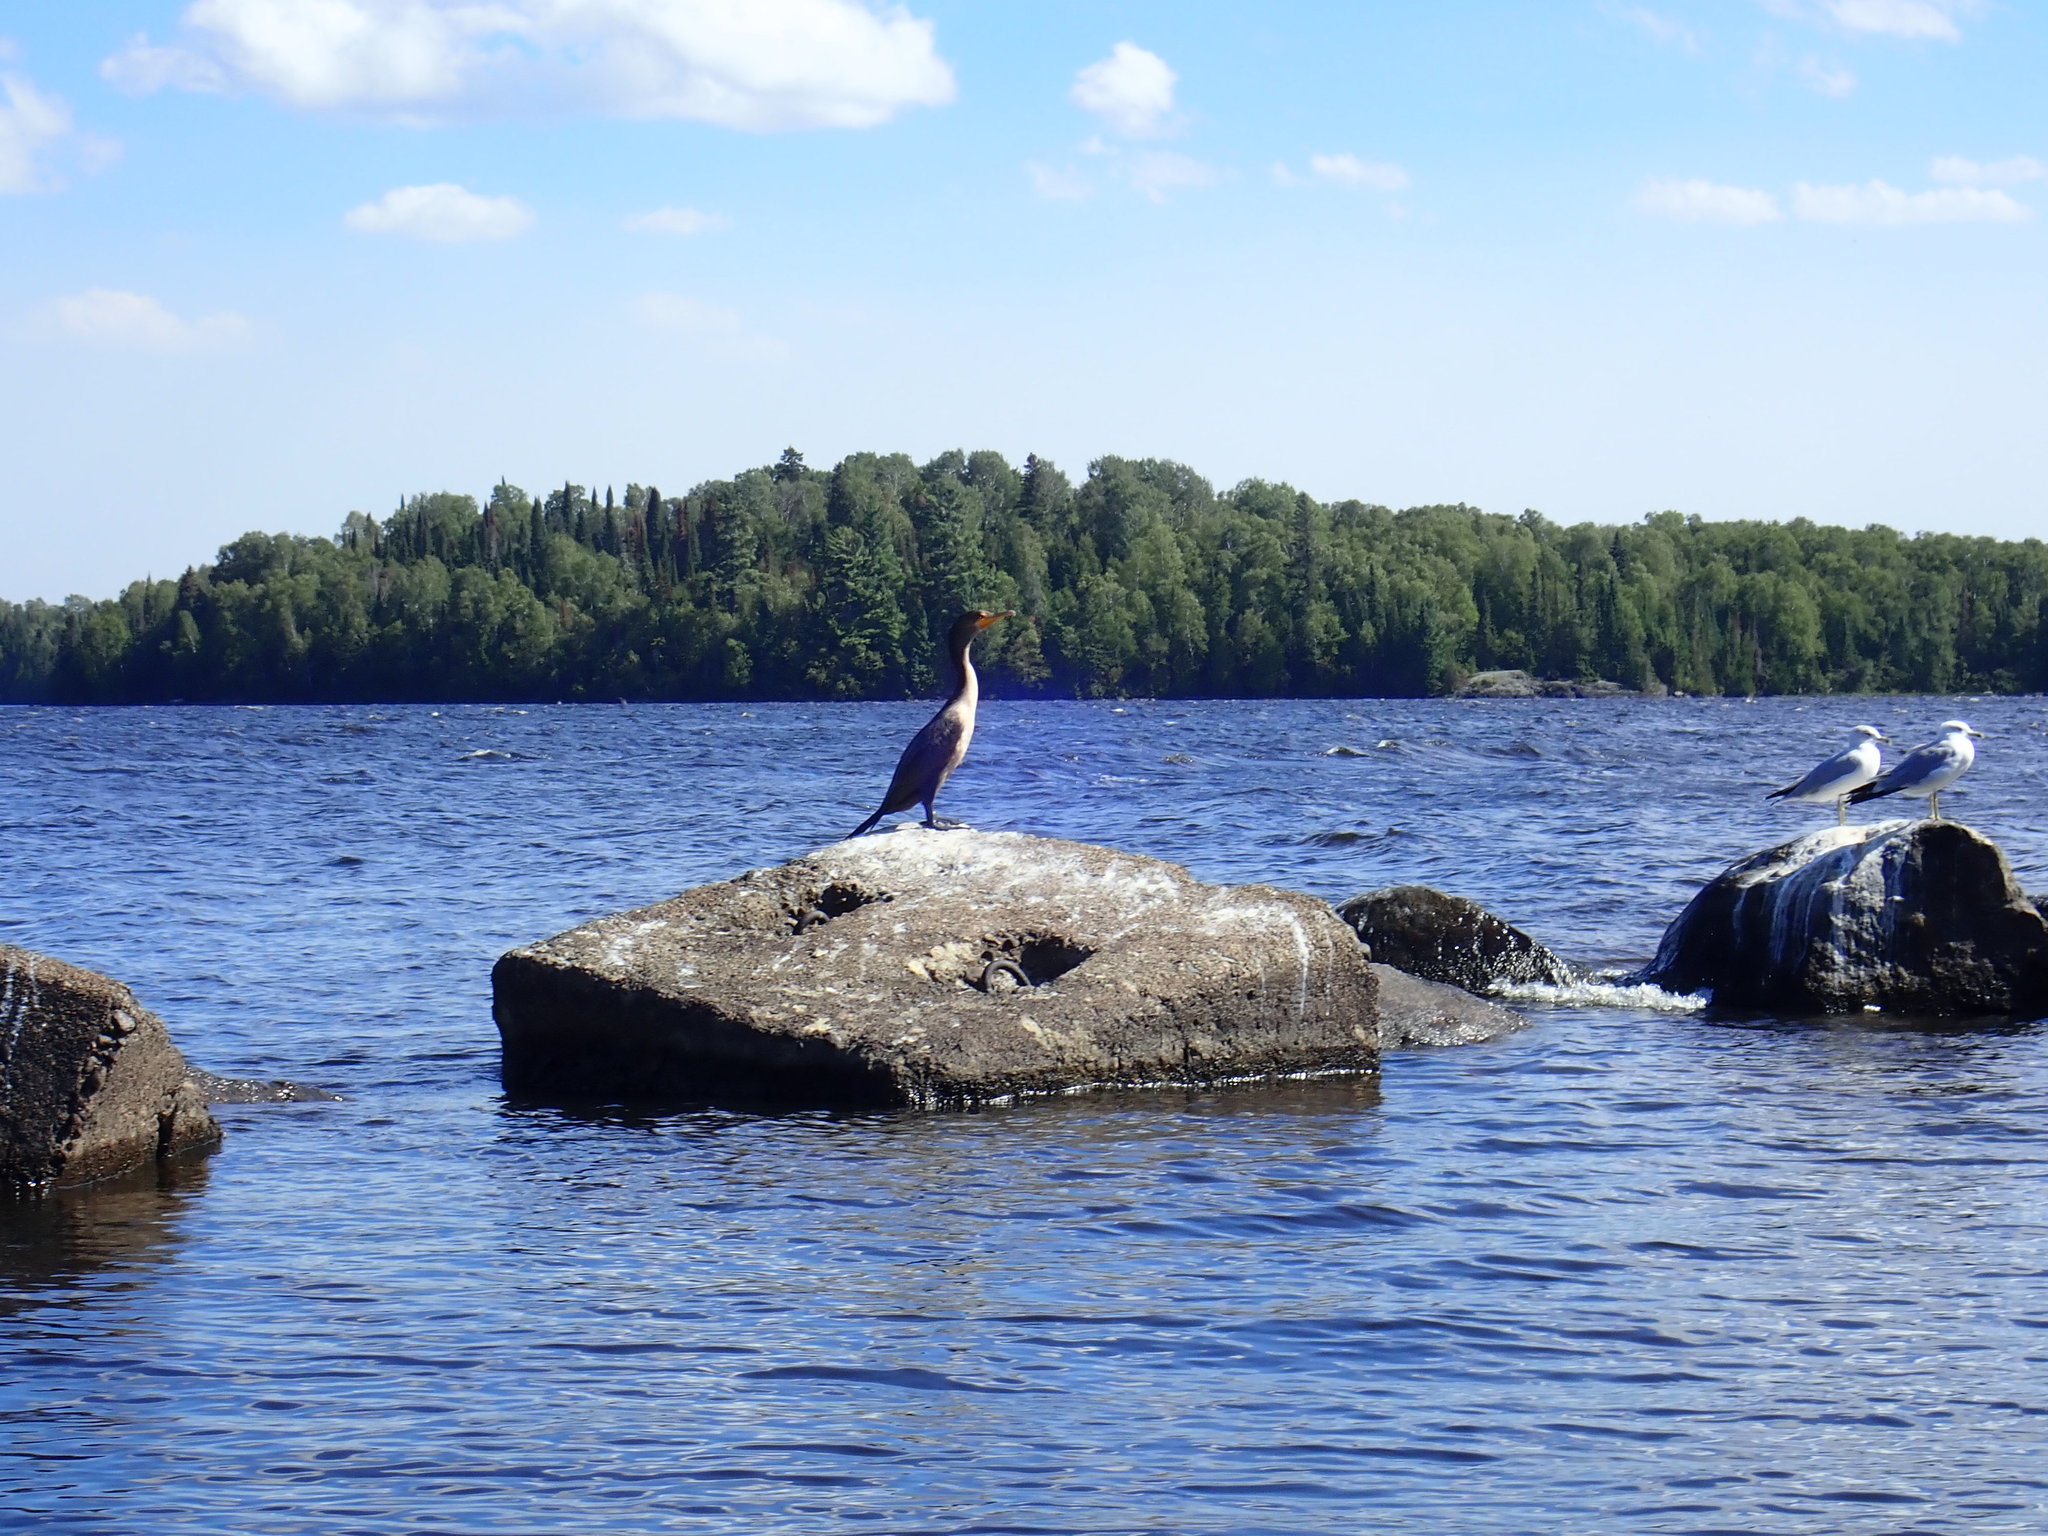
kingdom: Animalia
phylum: Chordata
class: Aves
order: Suliformes
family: Phalacrocoracidae
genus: Phalacrocorax
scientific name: Phalacrocorax auritus
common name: Double-crested cormorant
